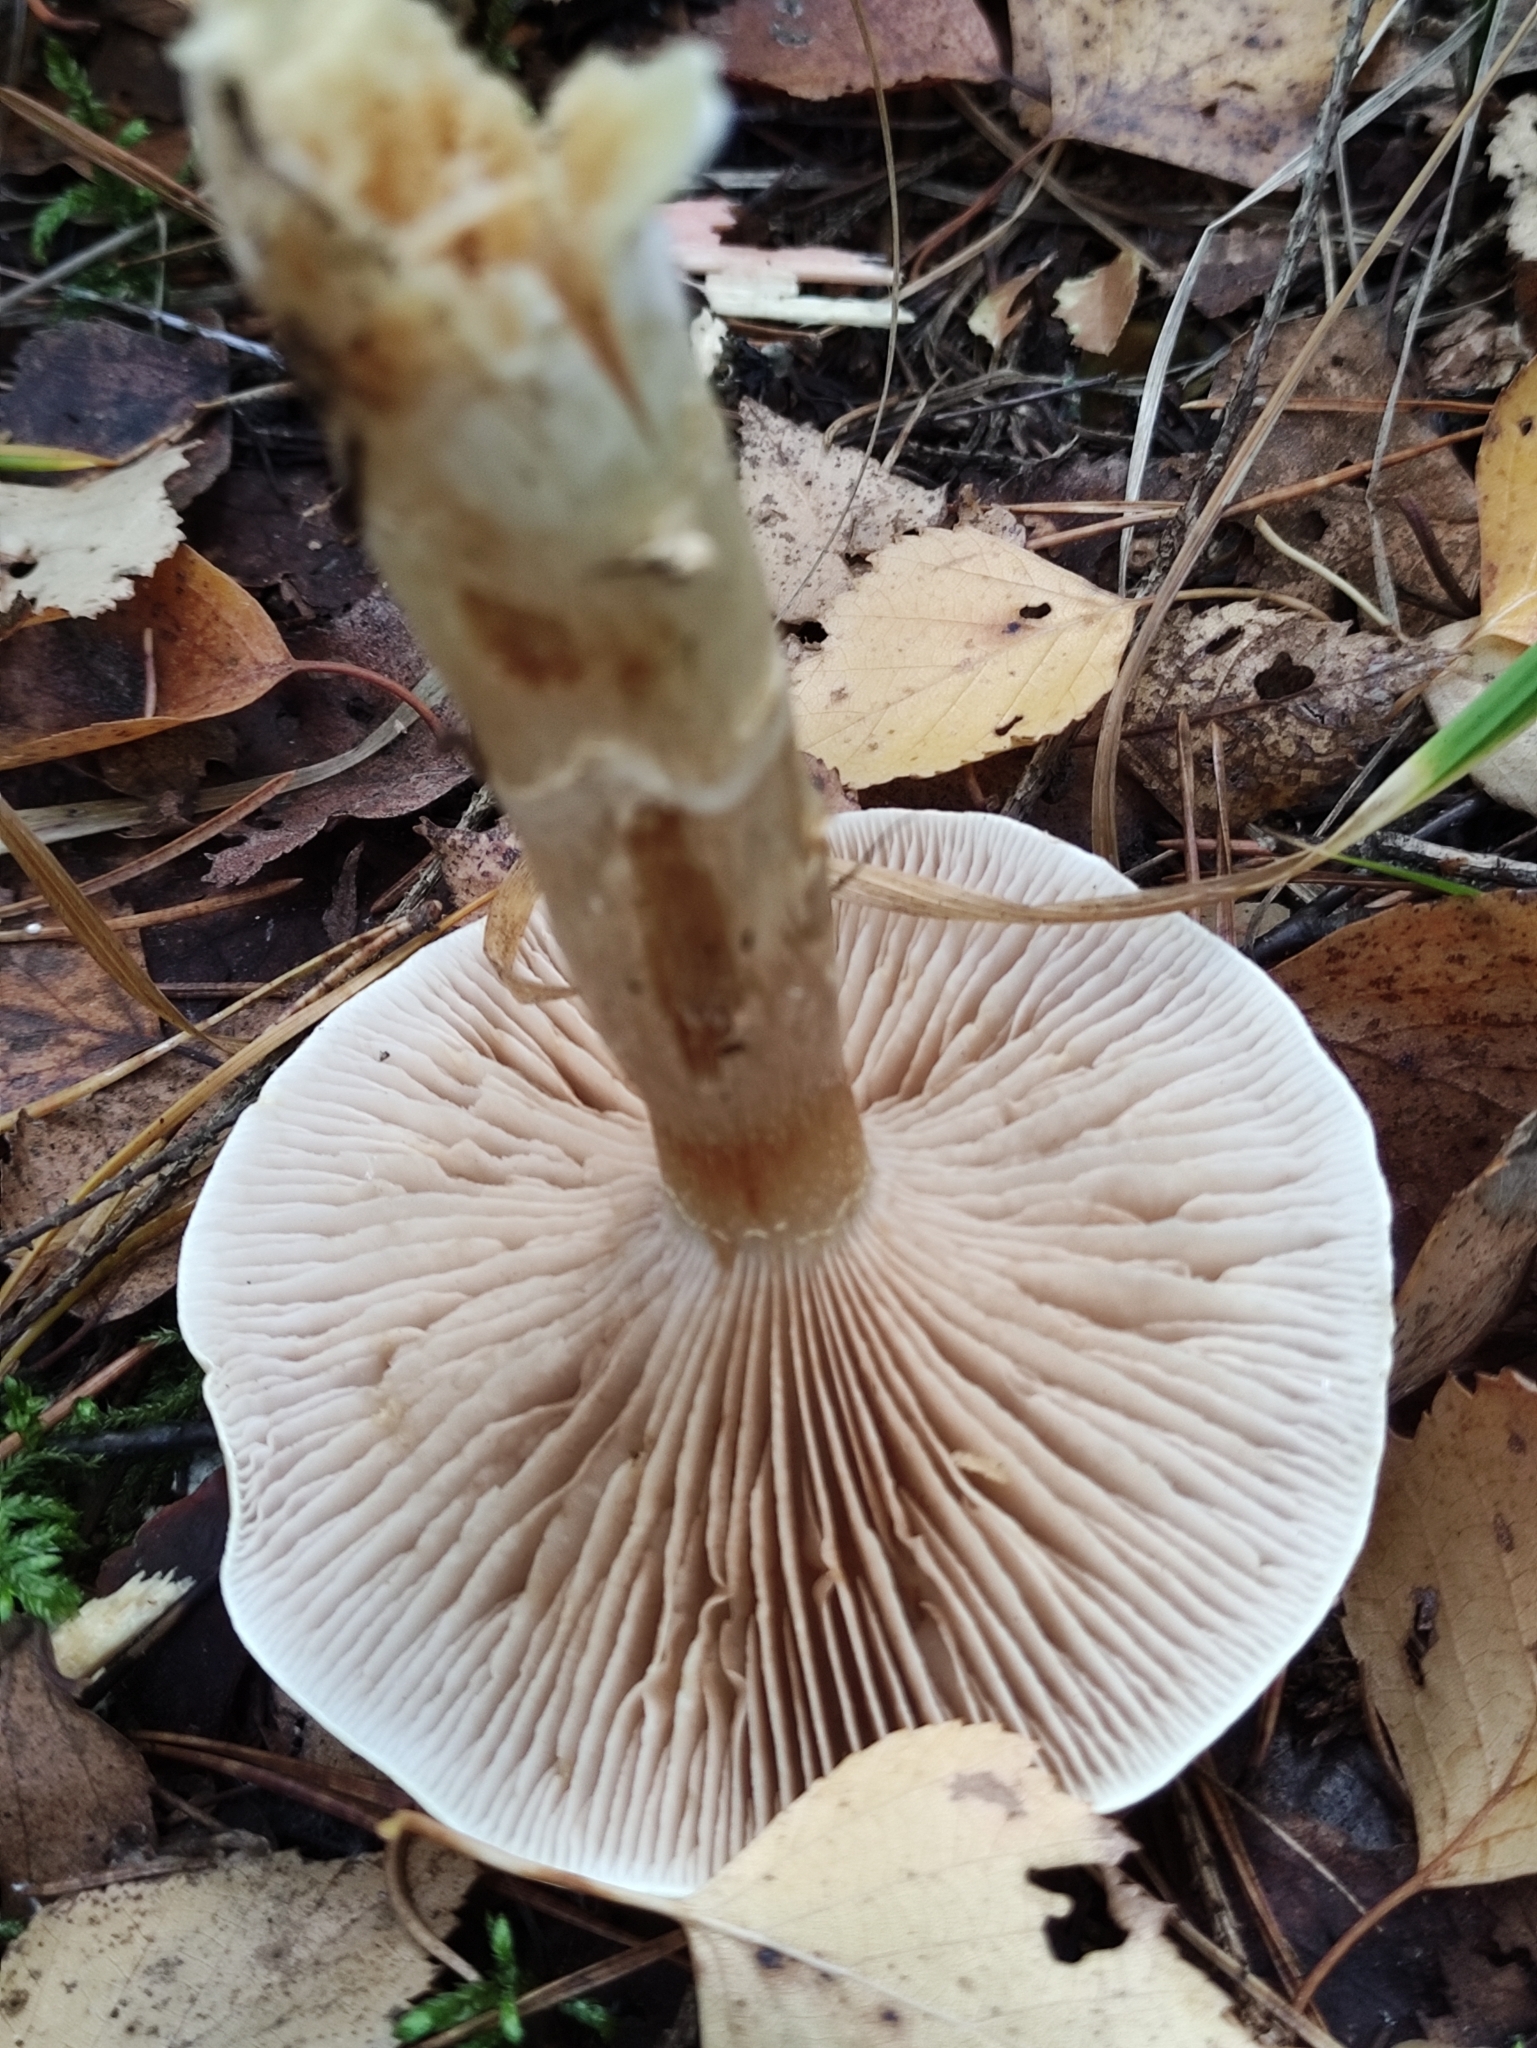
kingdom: Fungi
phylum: Basidiomycota
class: Agaricomycetes
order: Agaricales
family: Cortinariaceae
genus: Phlegmacium
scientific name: Phlegmacium triumphans
